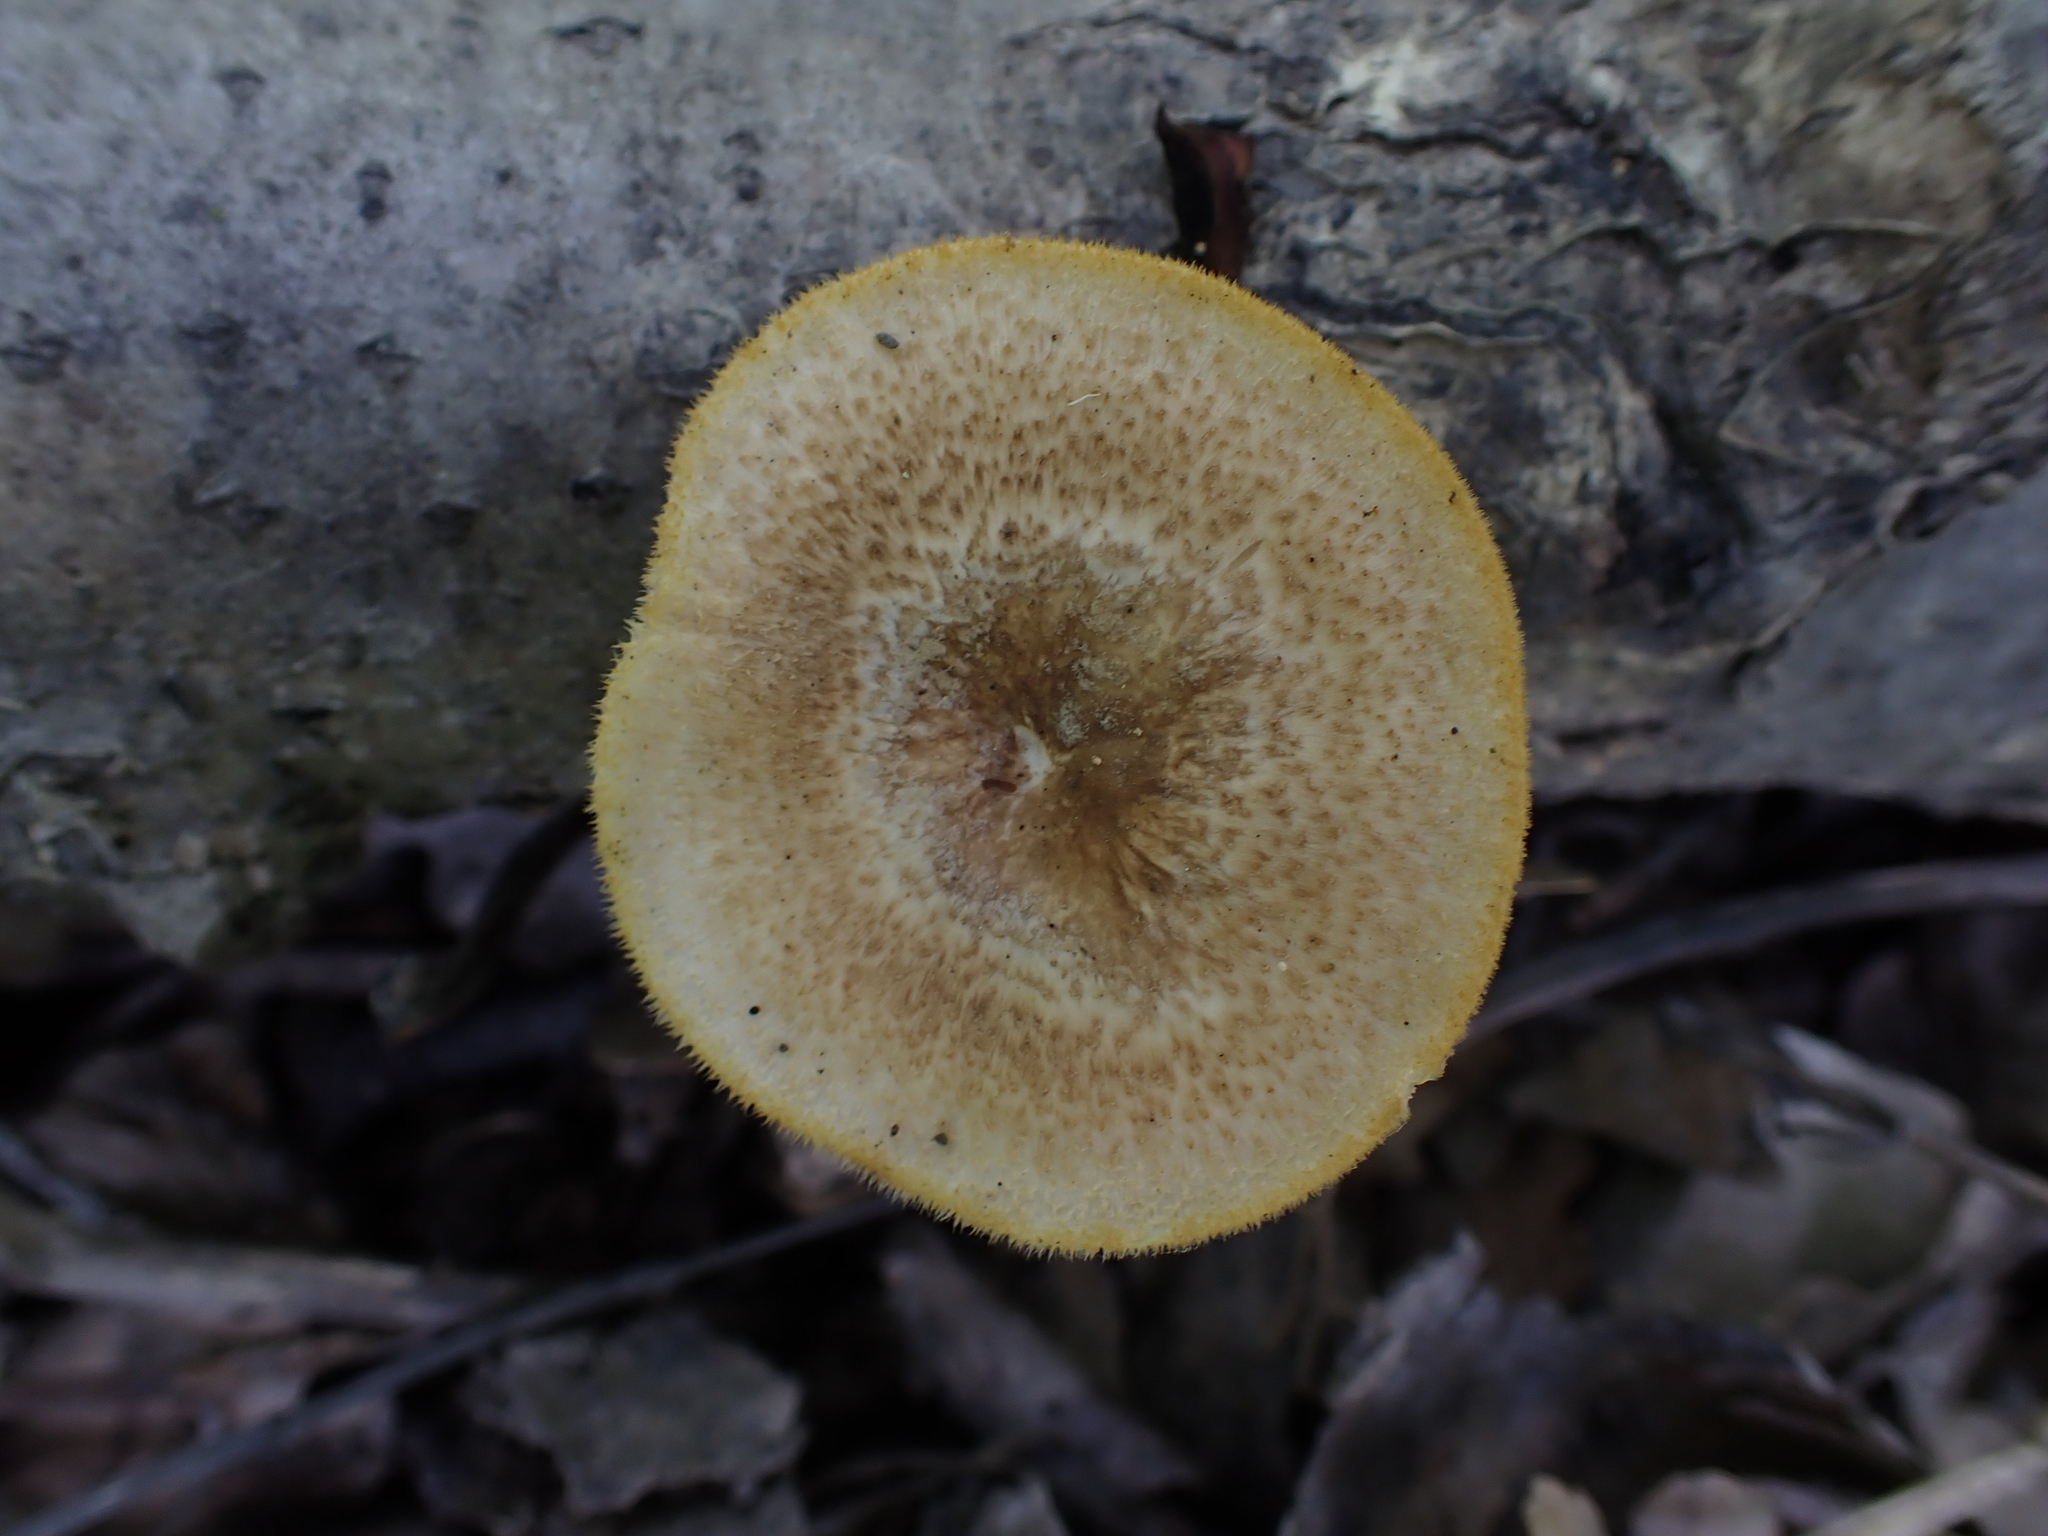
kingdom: Fungi
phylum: Basidiomycota
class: Agaricomycetes
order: Polyporales
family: Polyporaceae
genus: Lentinus
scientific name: Lentinus arcularius
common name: Spring polypore
